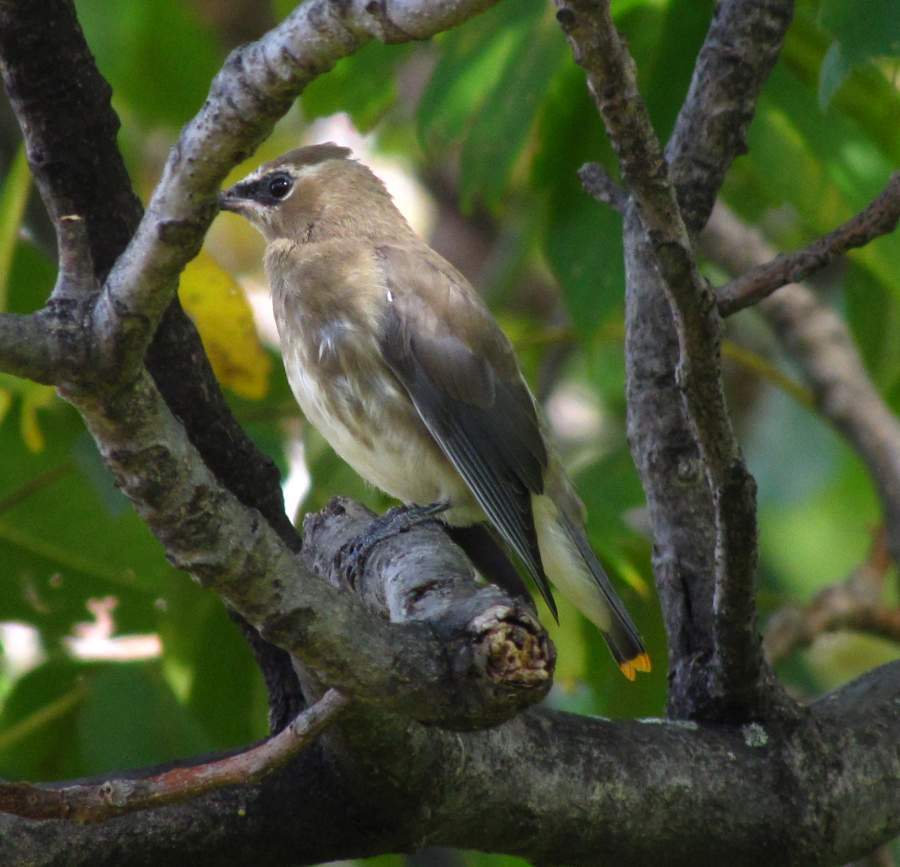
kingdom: Animalia
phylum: Chordata
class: Aves
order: Passeriformes
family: Bombycillidae
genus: Bombycilla
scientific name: Bombycilla cedrorum
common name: Cedar waxwing
